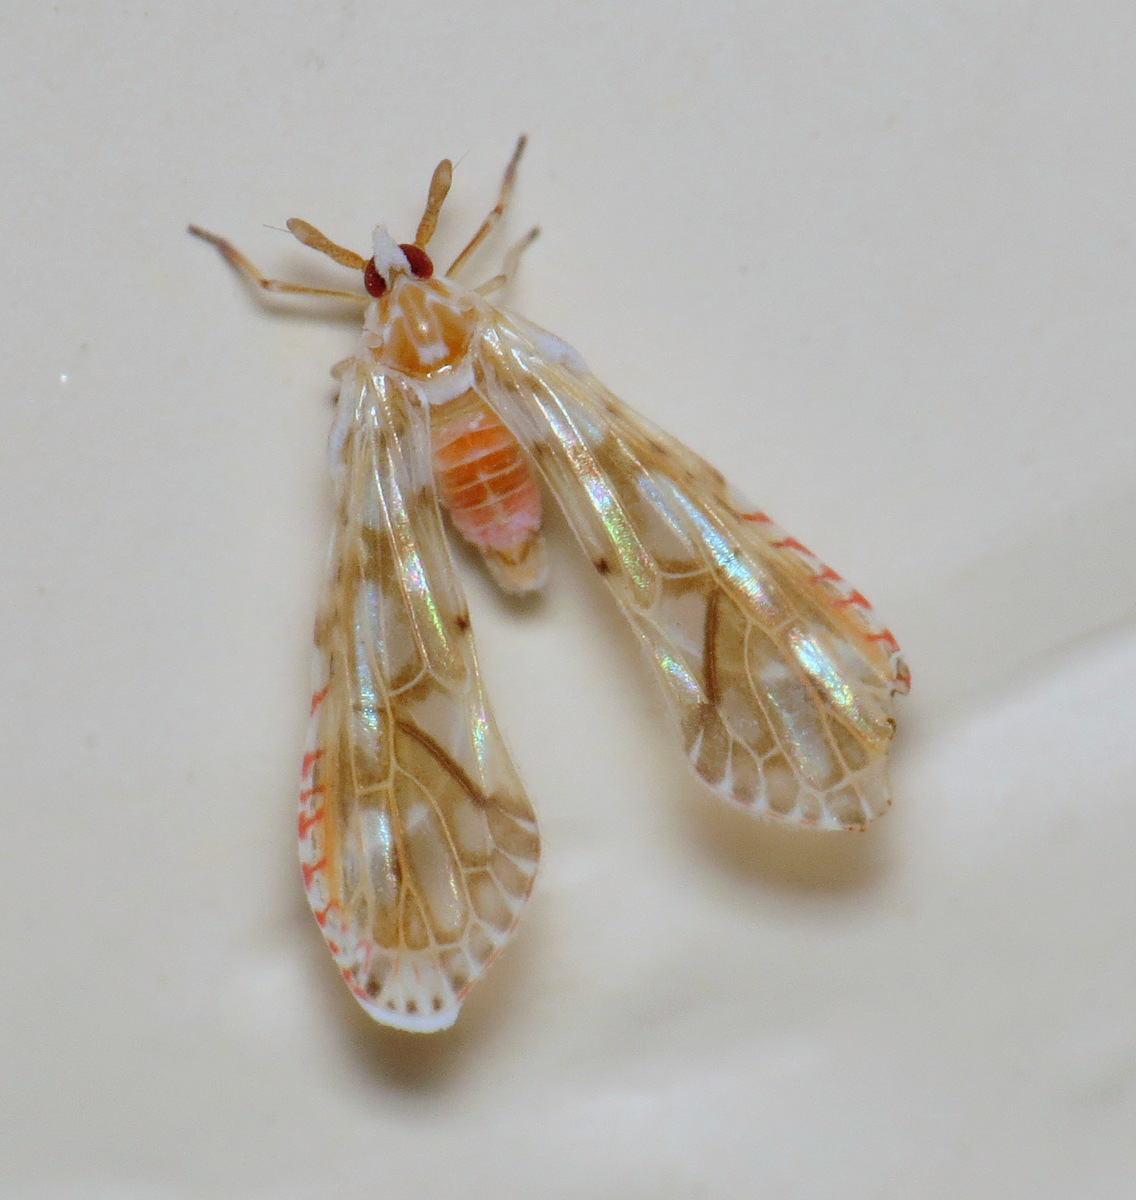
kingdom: Animalia
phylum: Arthropoda
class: Insecta
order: Hemiptera
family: Derbidae
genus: Anotia
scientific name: Anotia kirkaldyi
